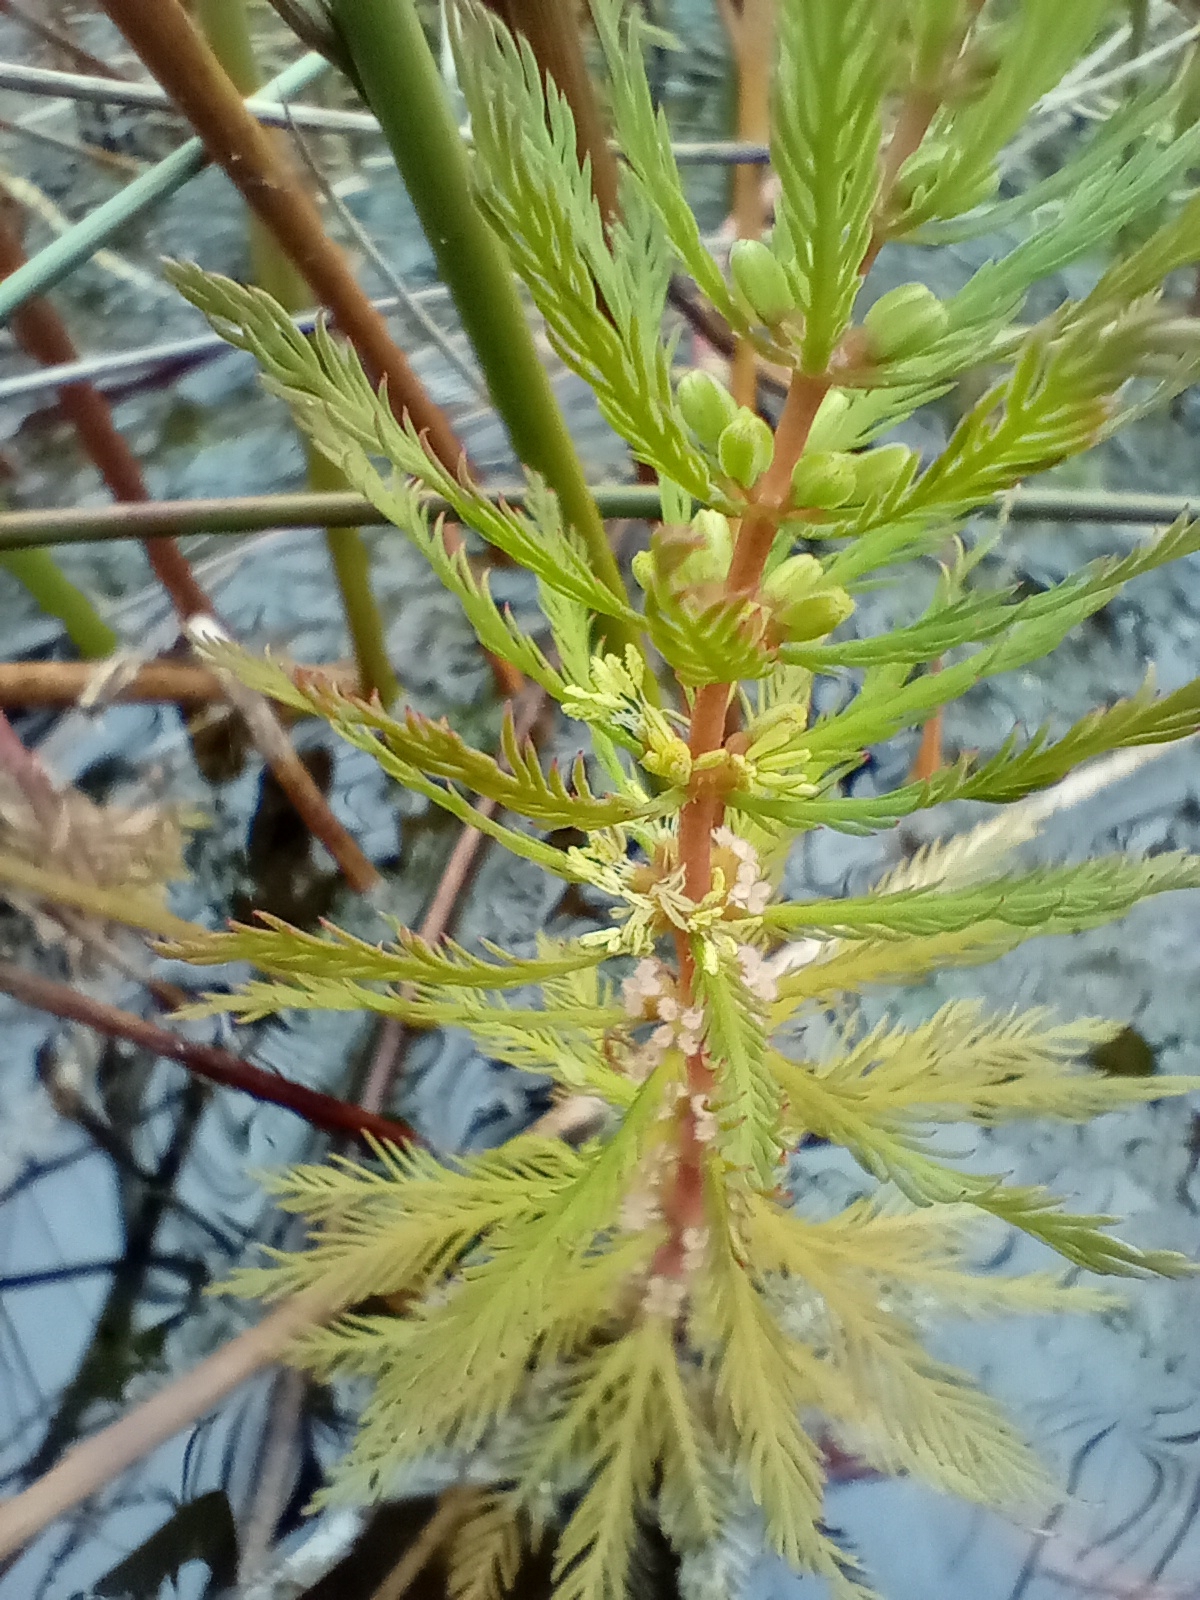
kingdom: Plantae
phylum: Tracheophyta
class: Magnoliopsida
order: Saxifragales
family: Haloragaceae
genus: Myriophyllum
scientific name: Myriophyllum robustum
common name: Stout water milfoil
